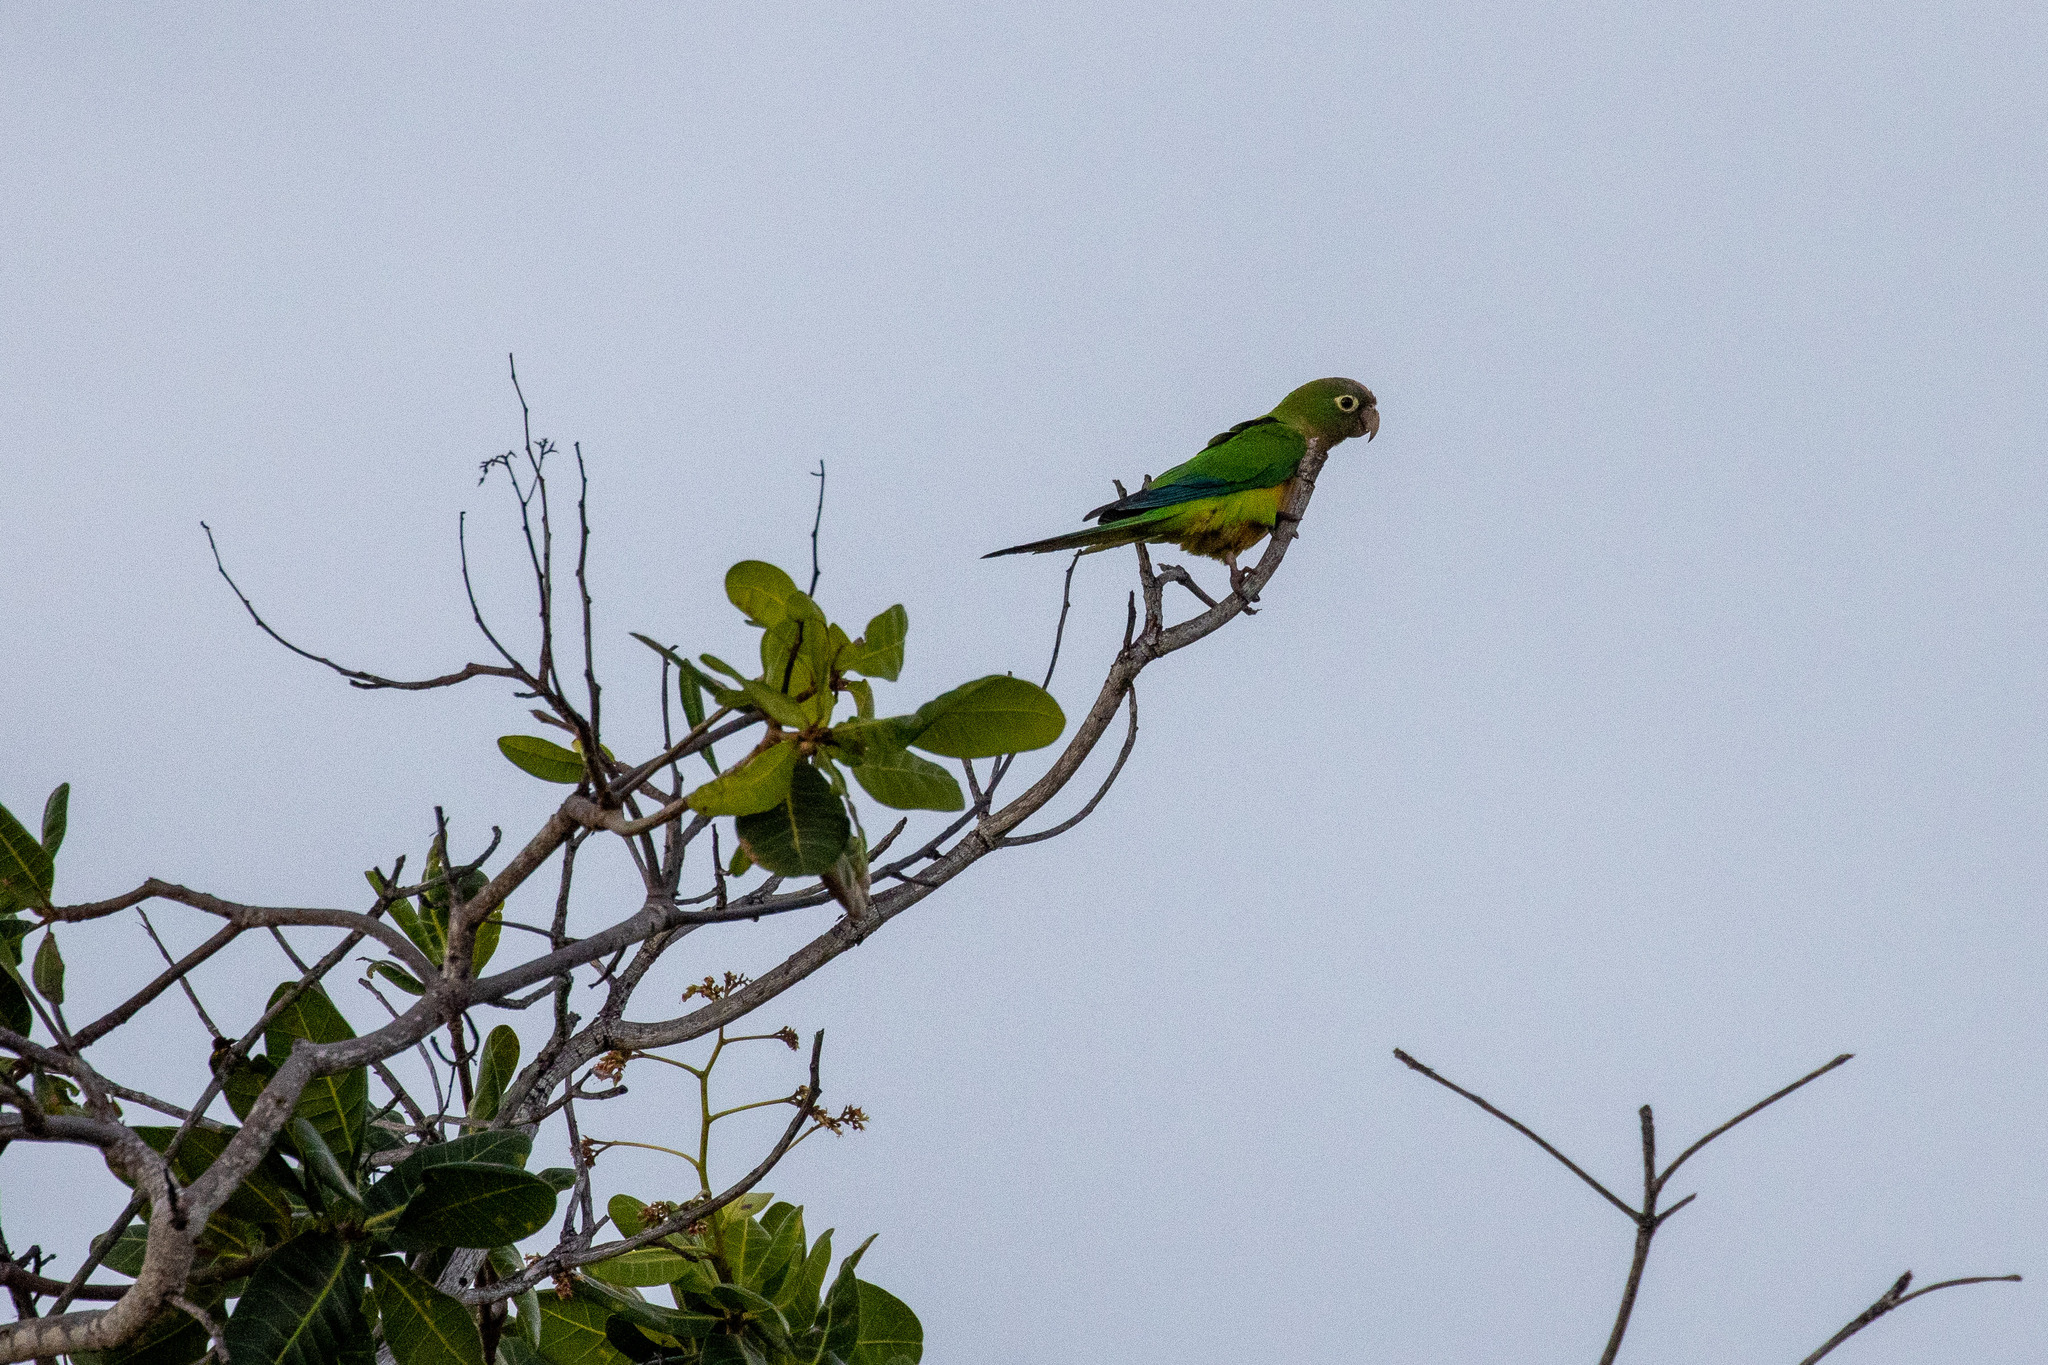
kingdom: Animalia
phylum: Chordata
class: Aves
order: Psittaciformes
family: Psittacidae
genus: Aratinga
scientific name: Aratinga cactorum
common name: Caatinga parakeet
